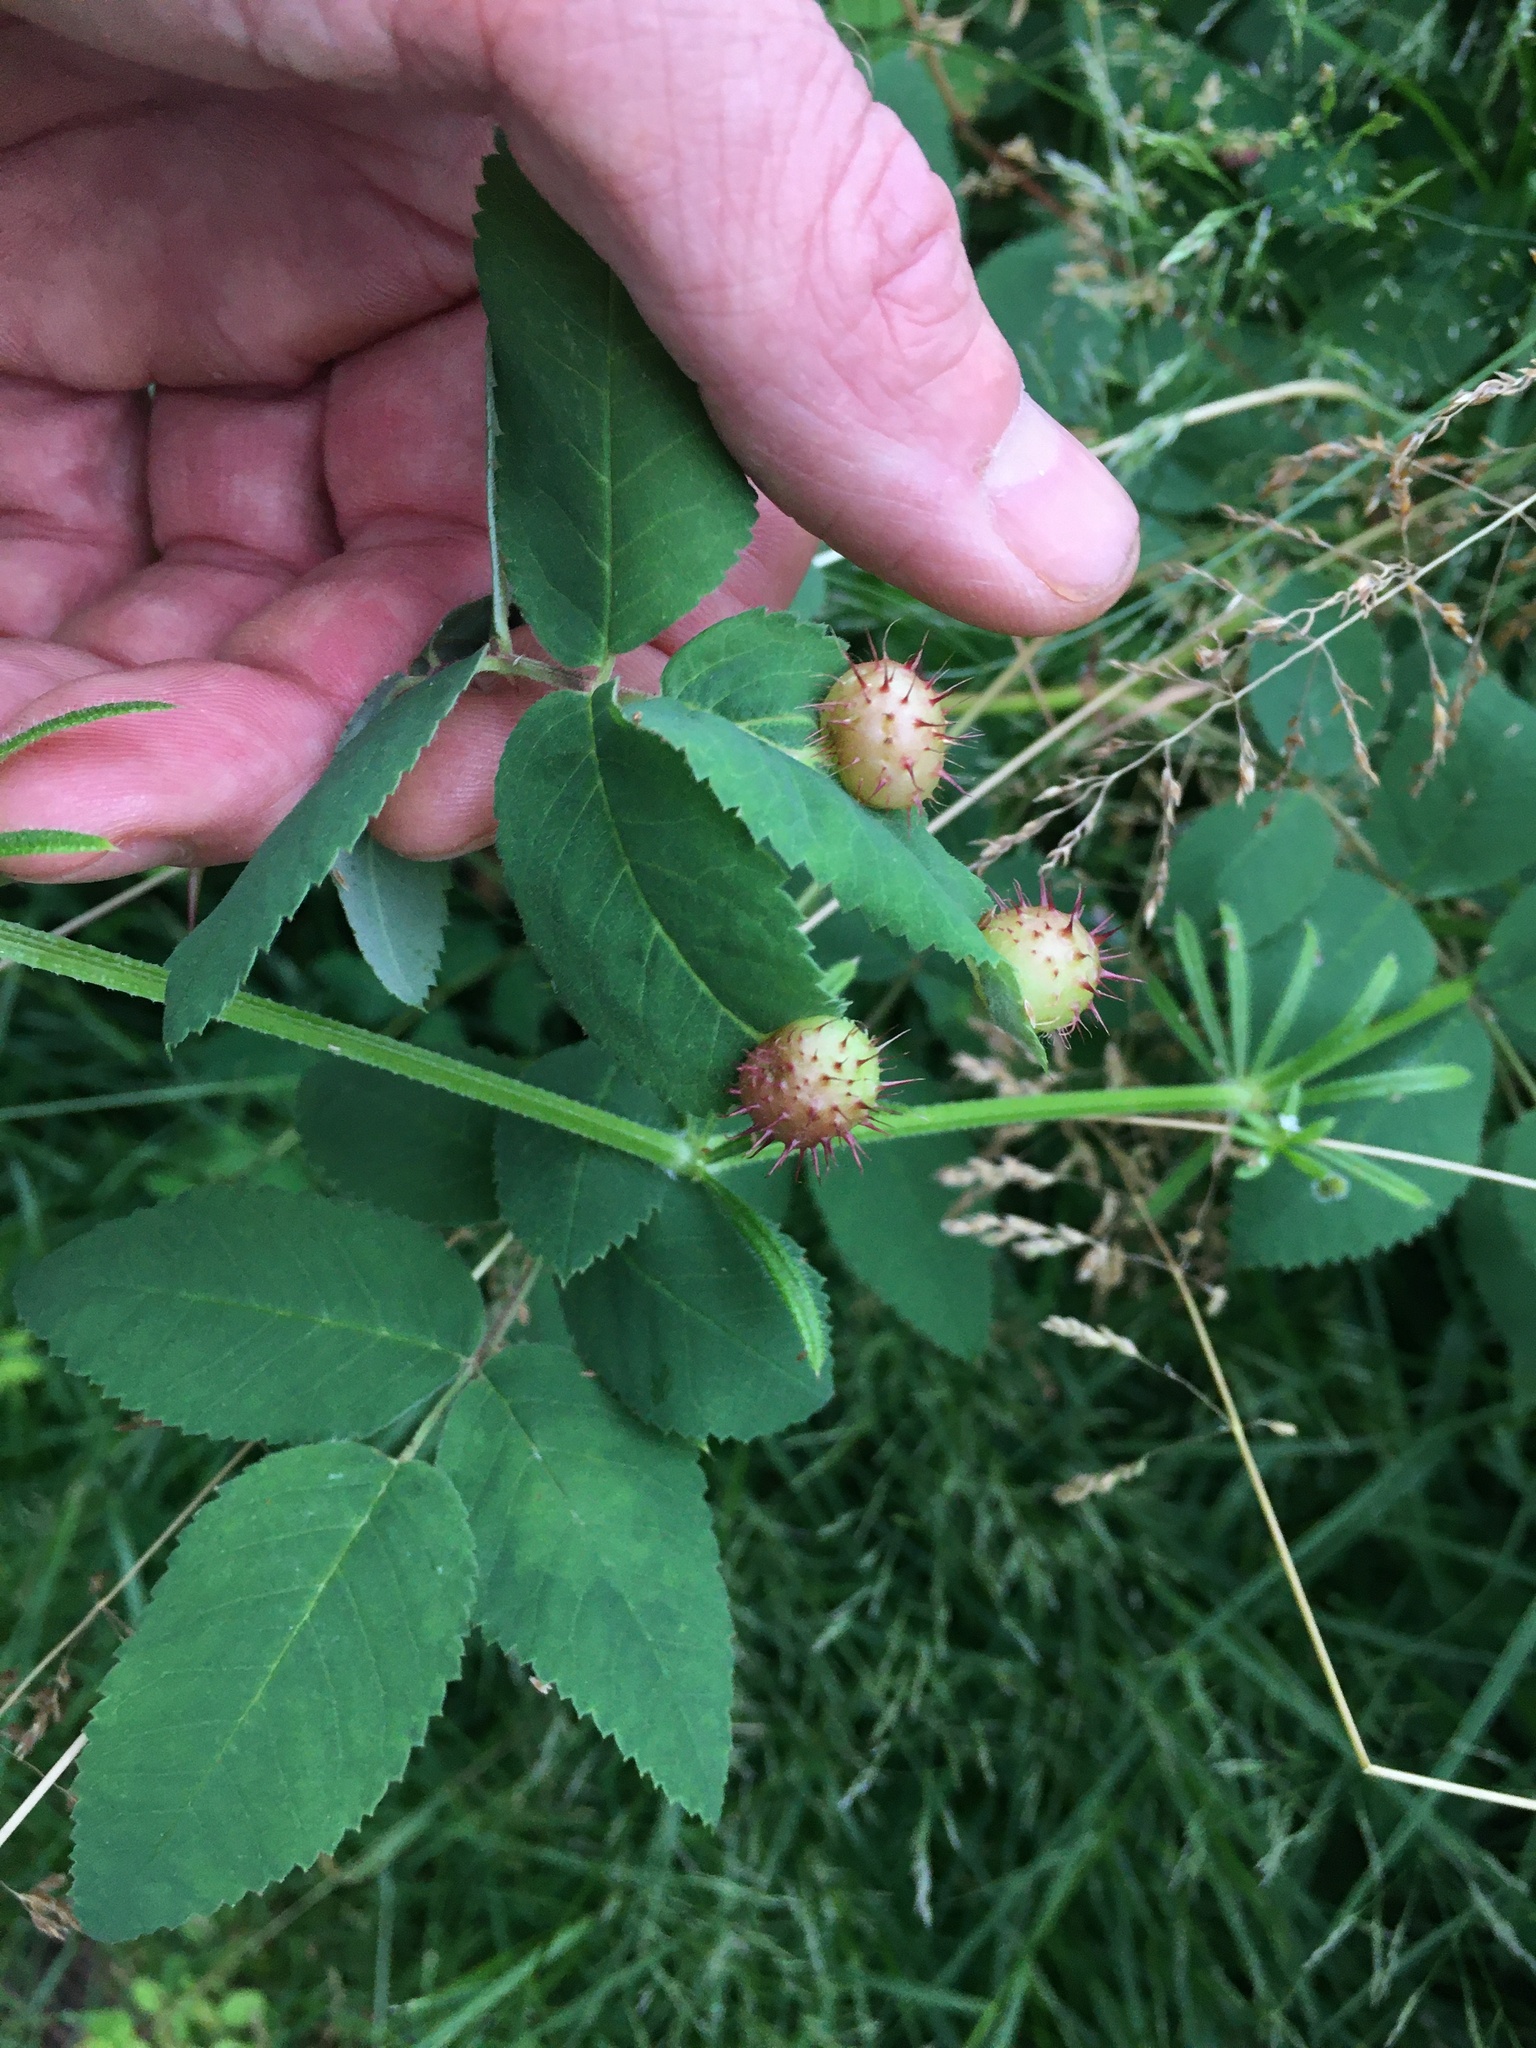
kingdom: Animalia
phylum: Arthropoda
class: Insecta
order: Hymenoptera
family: Cynipidae
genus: Diplolepis
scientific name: Diplolepis polita
